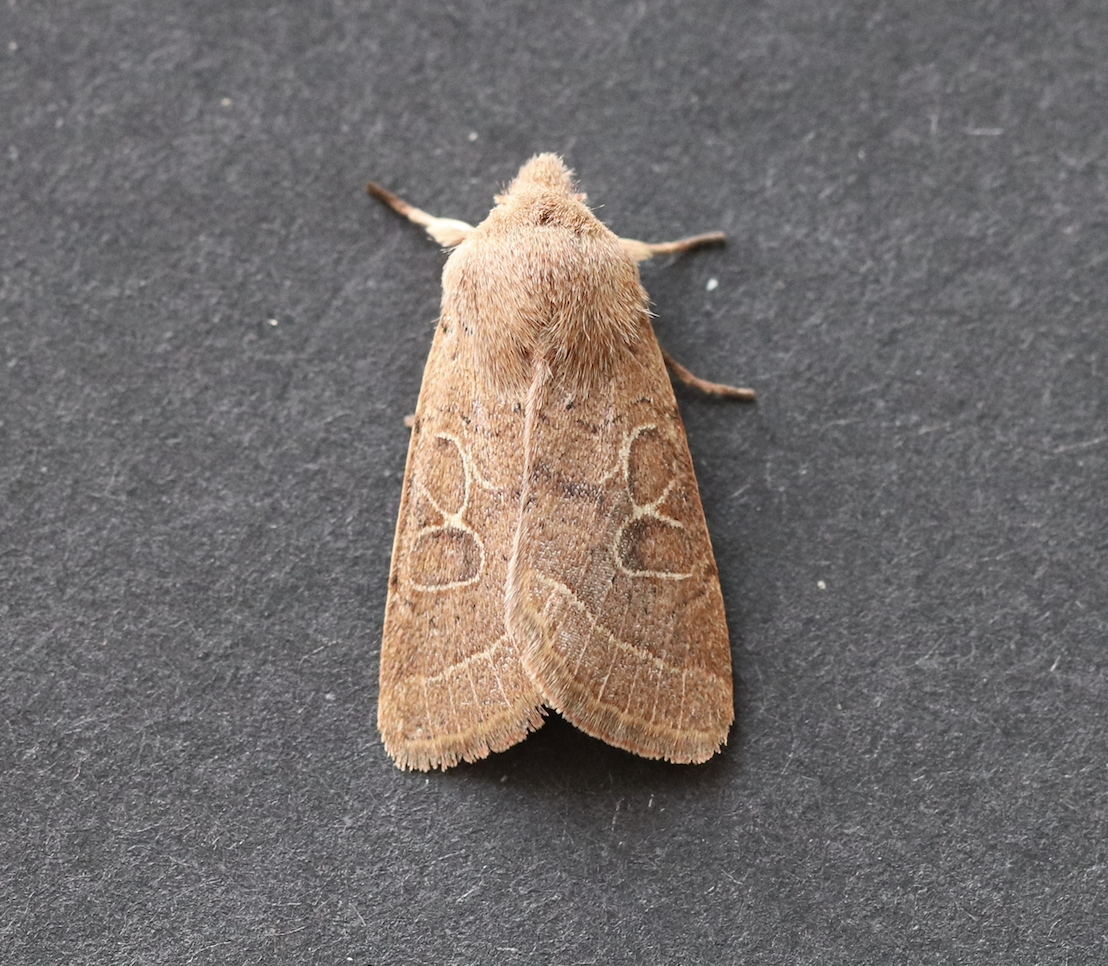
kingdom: Animalia
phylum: Arthropoda
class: Insecta
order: Lepidoptera
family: Noctuidae
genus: Orthosia
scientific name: Orthosia cerasi
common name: Common quaker
